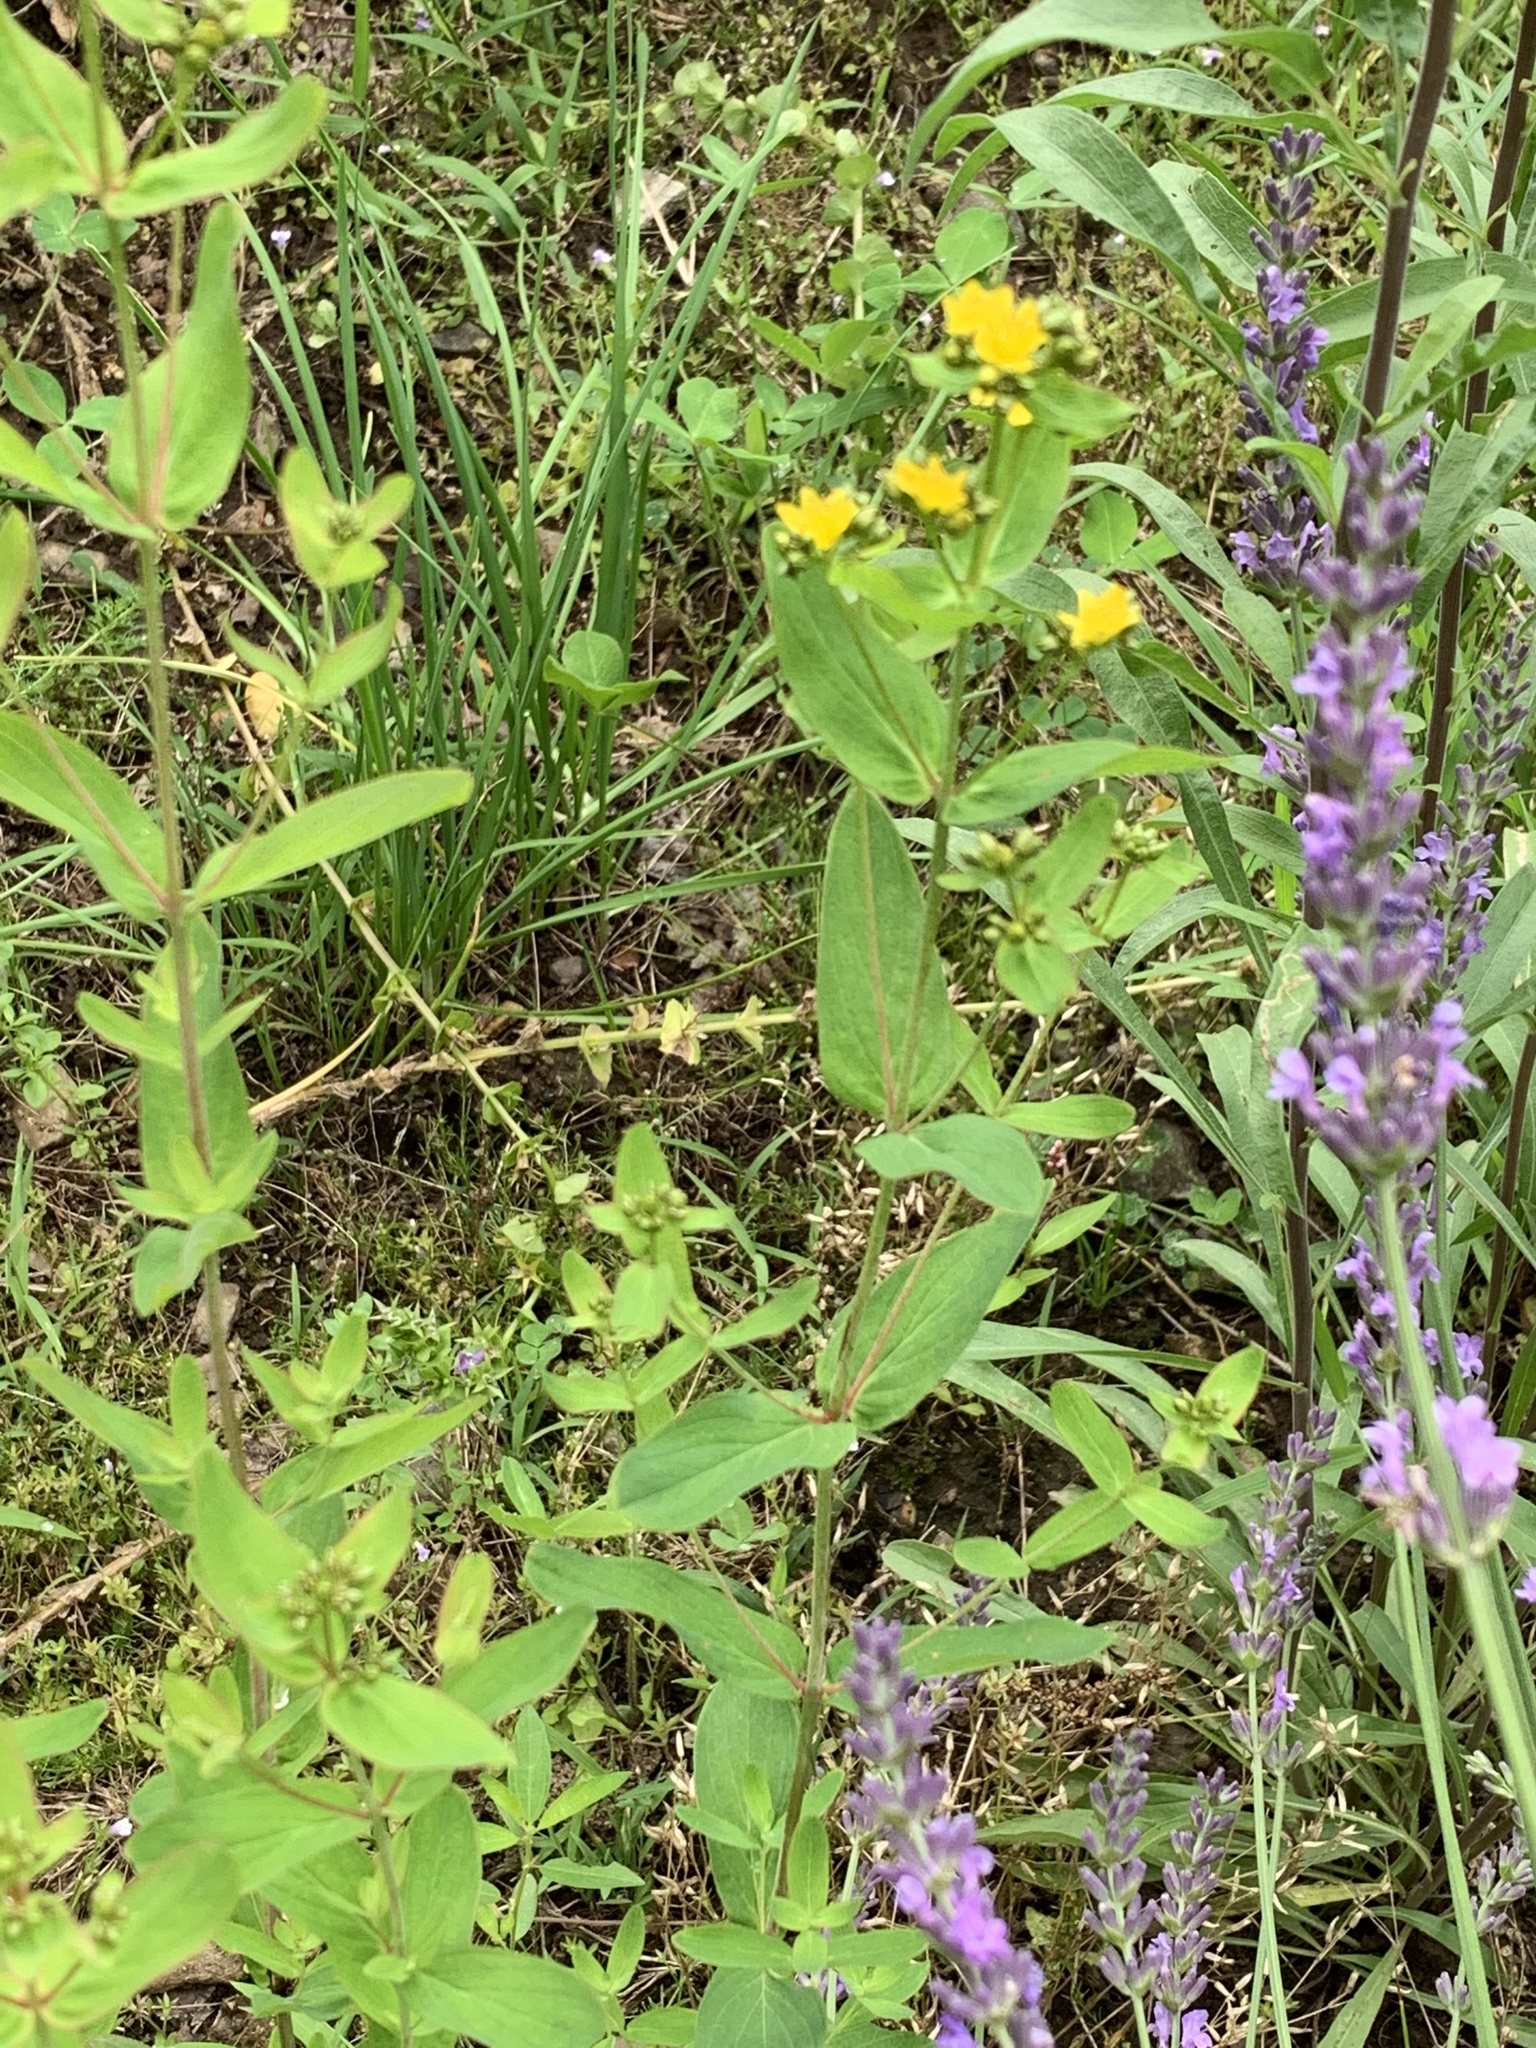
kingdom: Plantae
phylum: Tracheophyta
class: Magnoliopsida
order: Malpighiales
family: Hypericaceae
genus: Hypericum
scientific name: Hypericum punctatum
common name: Spotted st. john's-wort
